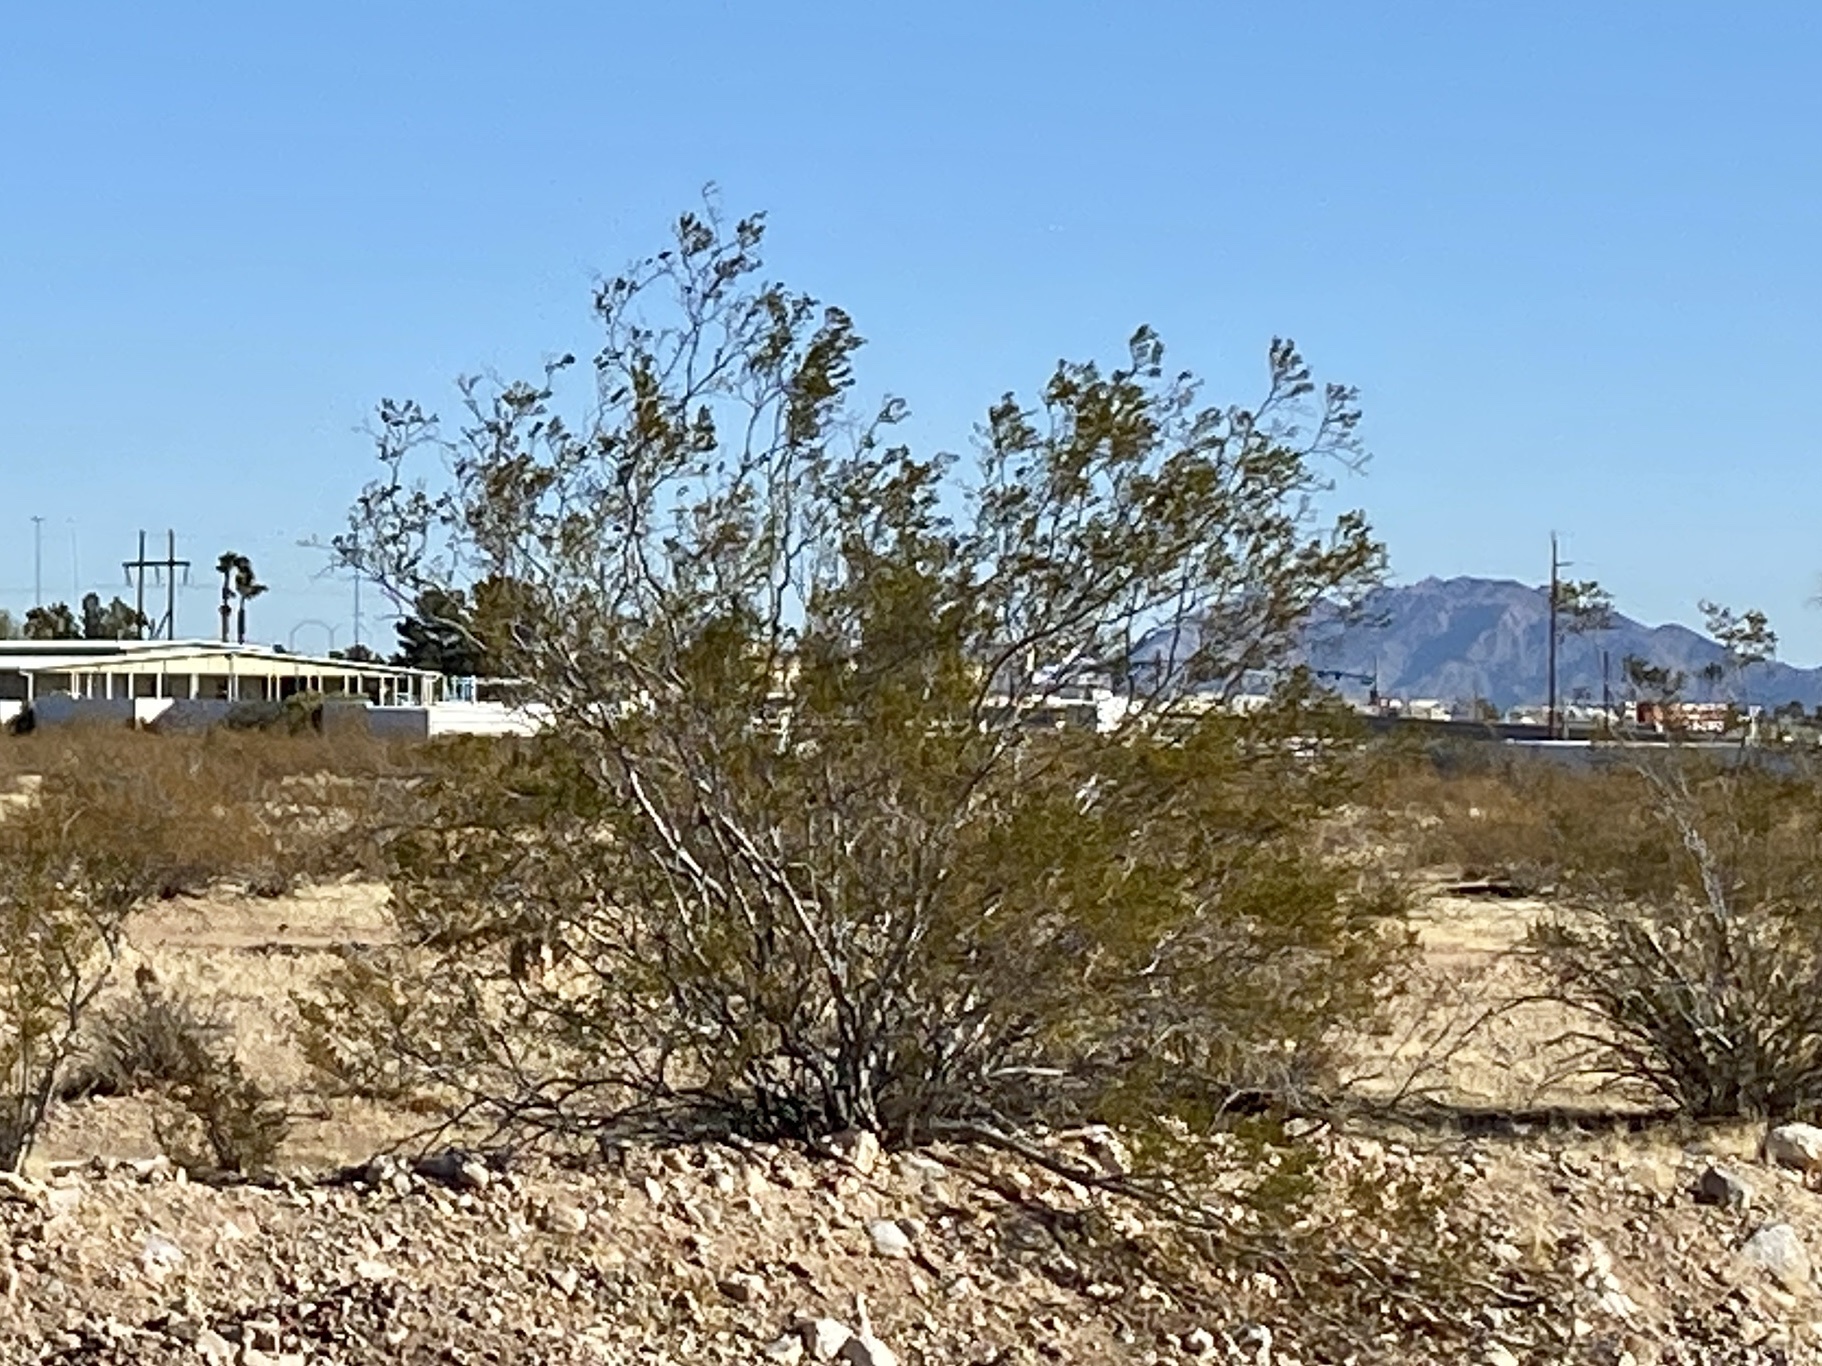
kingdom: Plantae
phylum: Tracheophyta
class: Magnoliopsida
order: Zygophyllales
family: Zygophyllaceae
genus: Larrea
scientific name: Larrea tridentata
